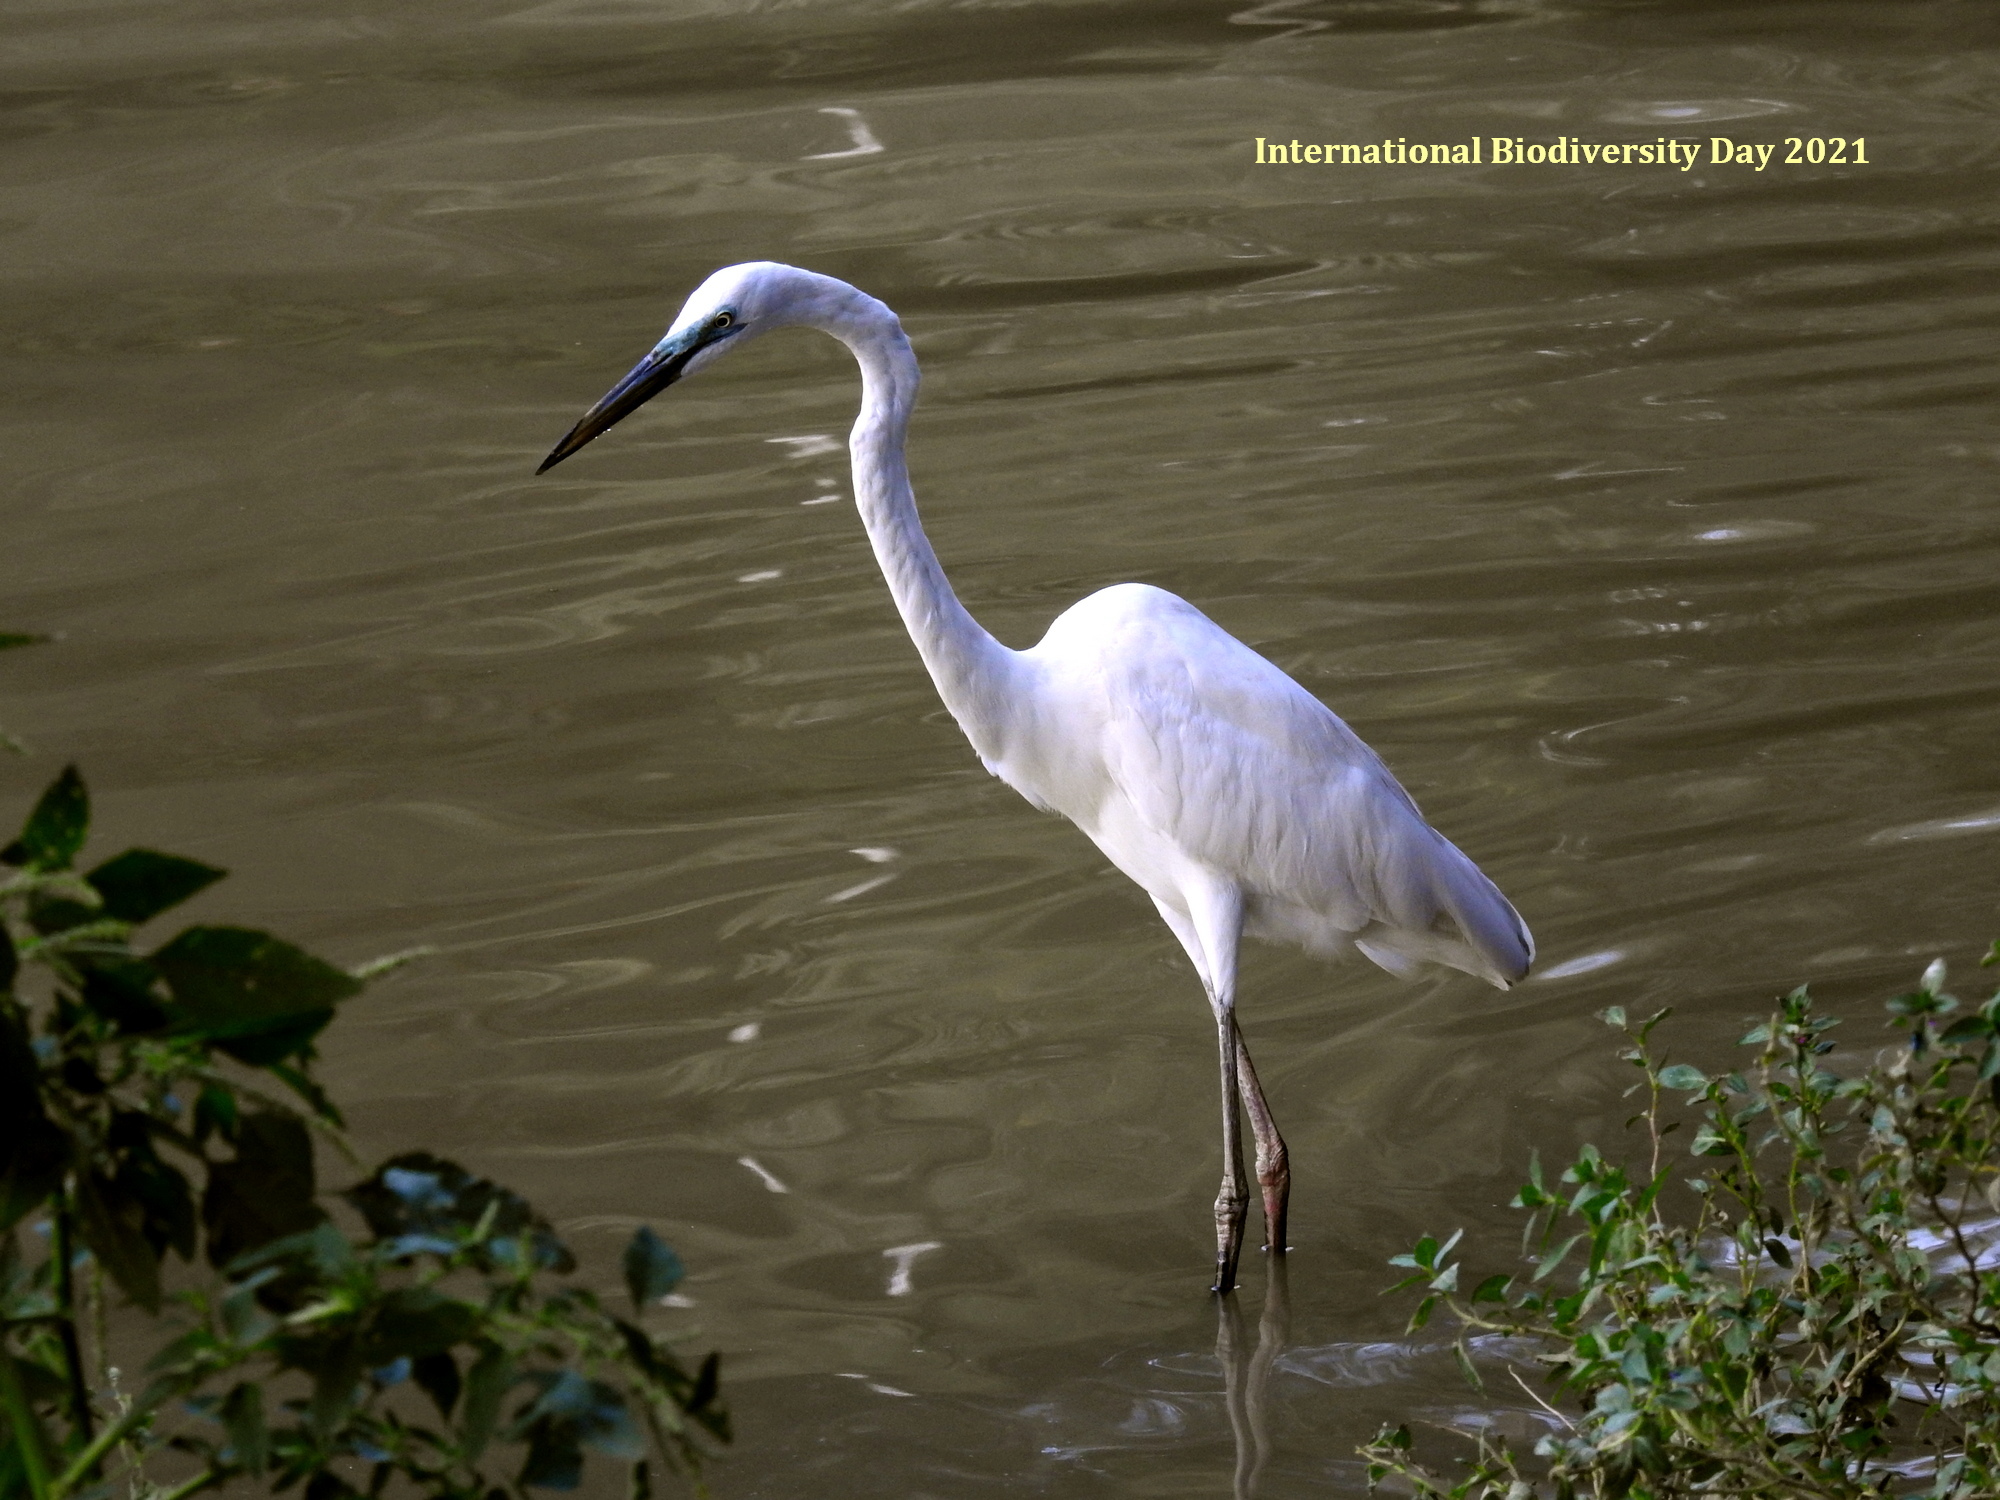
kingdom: Animalia
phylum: Chordata
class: Aves
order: Pelecaniformes
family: Ardeidae
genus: Ardea
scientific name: Ardea alba
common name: Great egret
